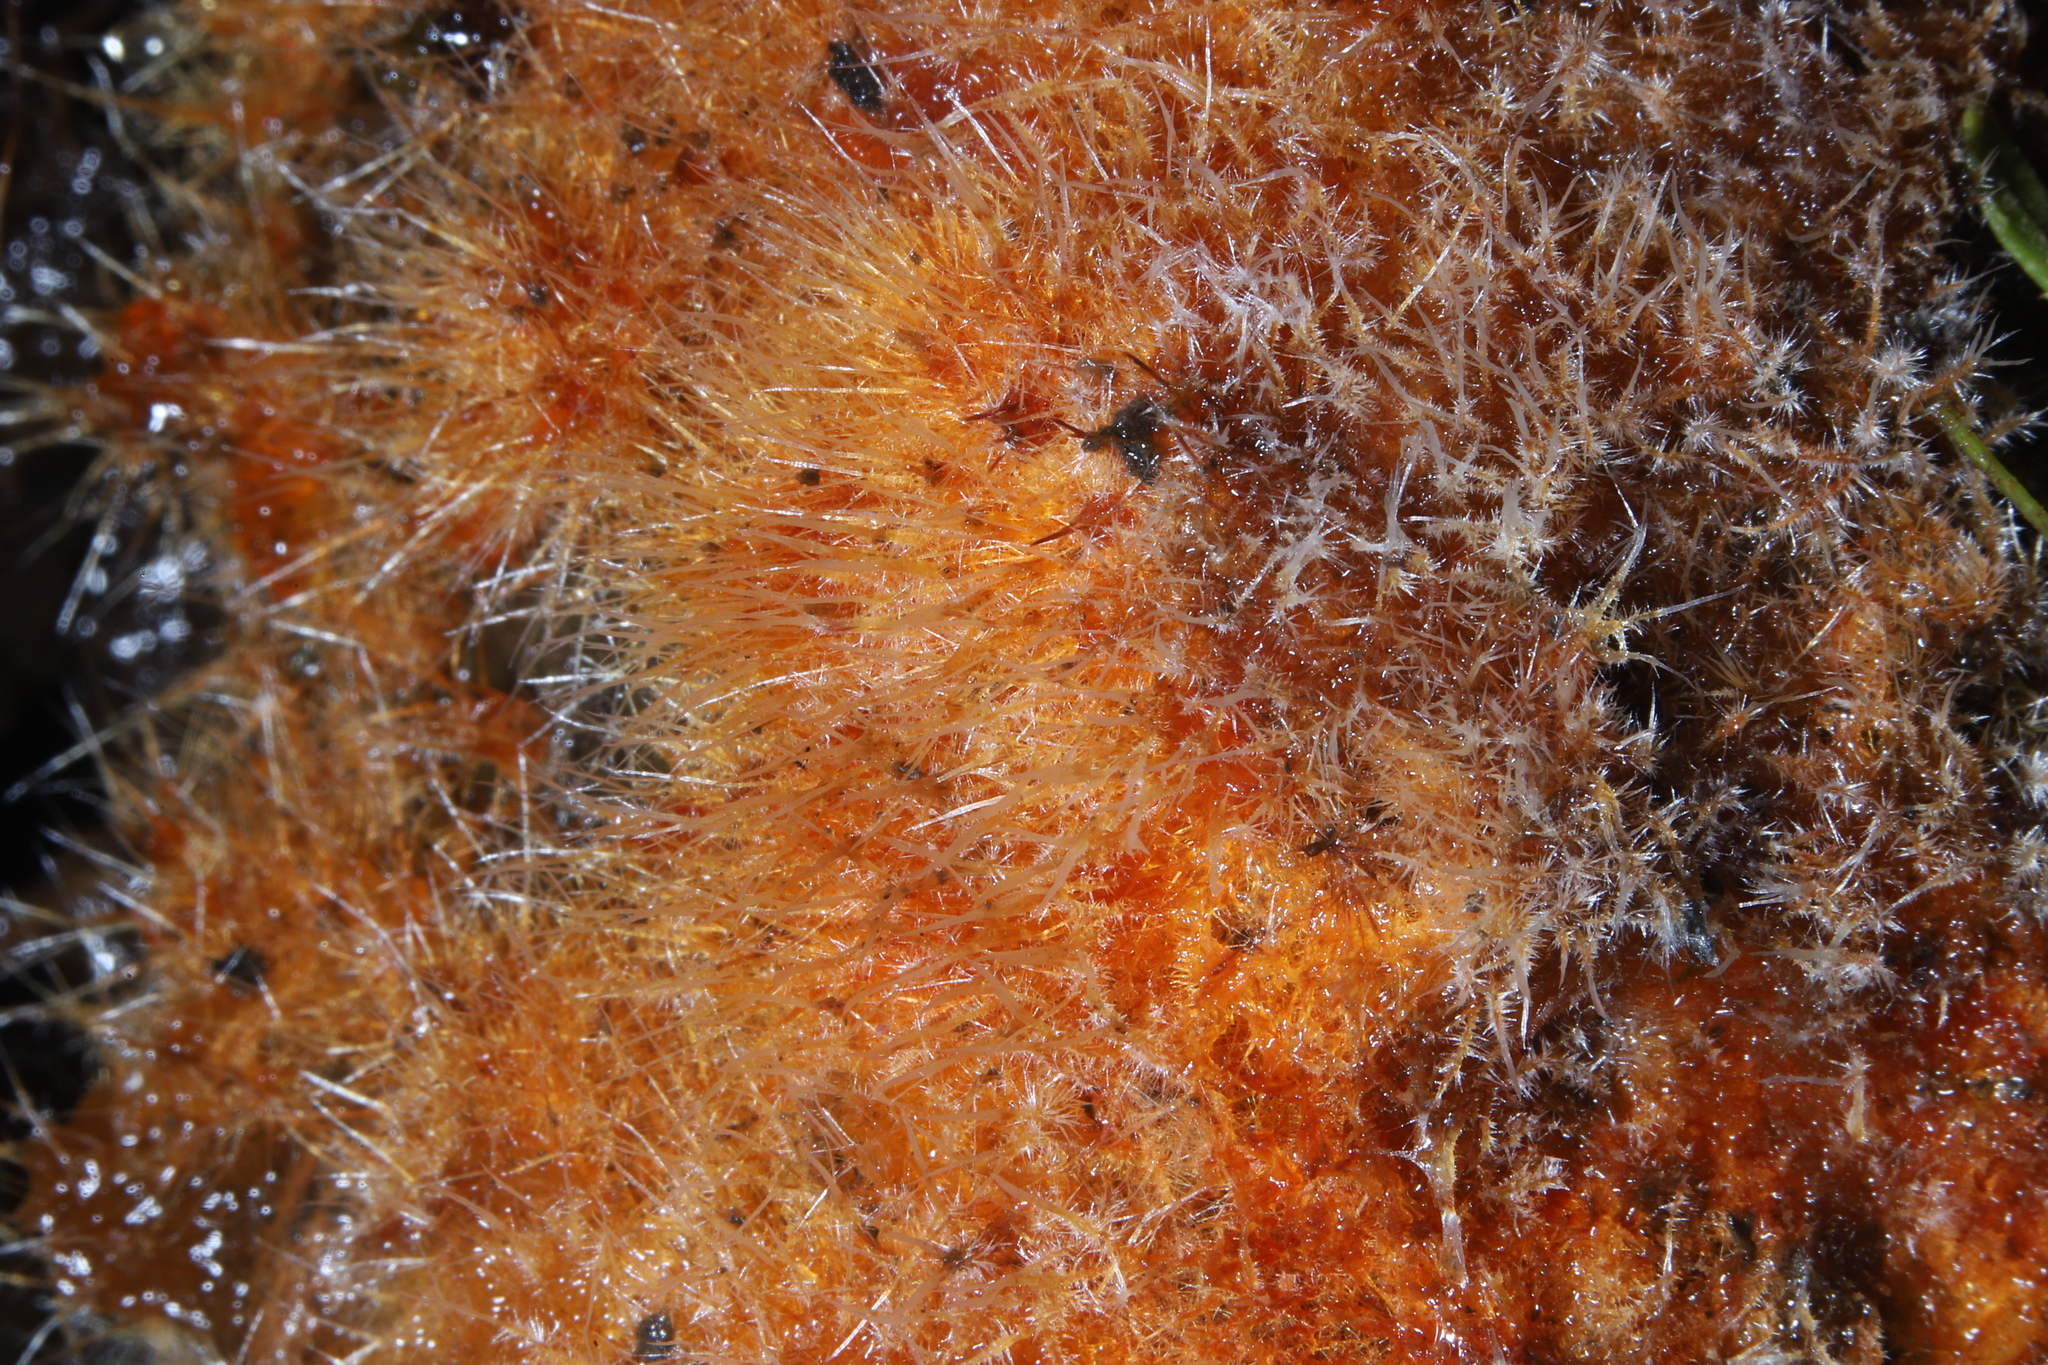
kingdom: Fungi
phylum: Basidiomycota
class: Agaricomycetes
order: Agaricales
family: Psathyrellaceae
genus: Coprinellus
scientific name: Coprinellus domesticus
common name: Firerug inkcap
